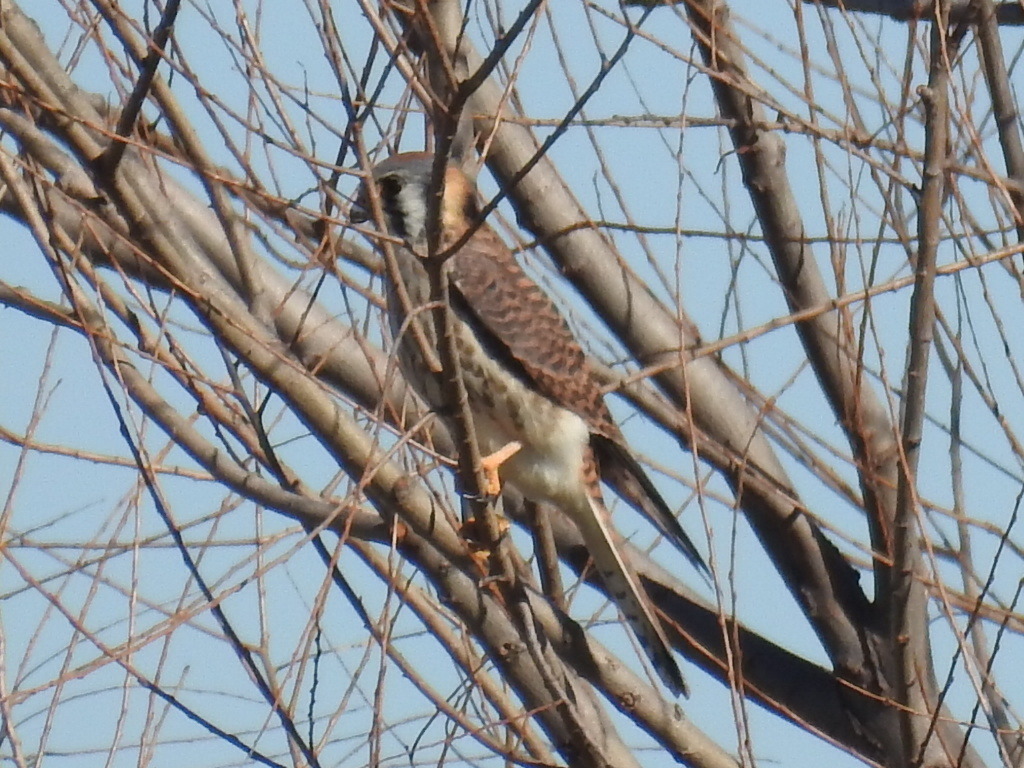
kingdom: Animalia
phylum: Chordata
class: Aves
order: Falconiformes
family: Falconidae
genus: Falco
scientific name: Falco sparverius
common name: American kestrel
